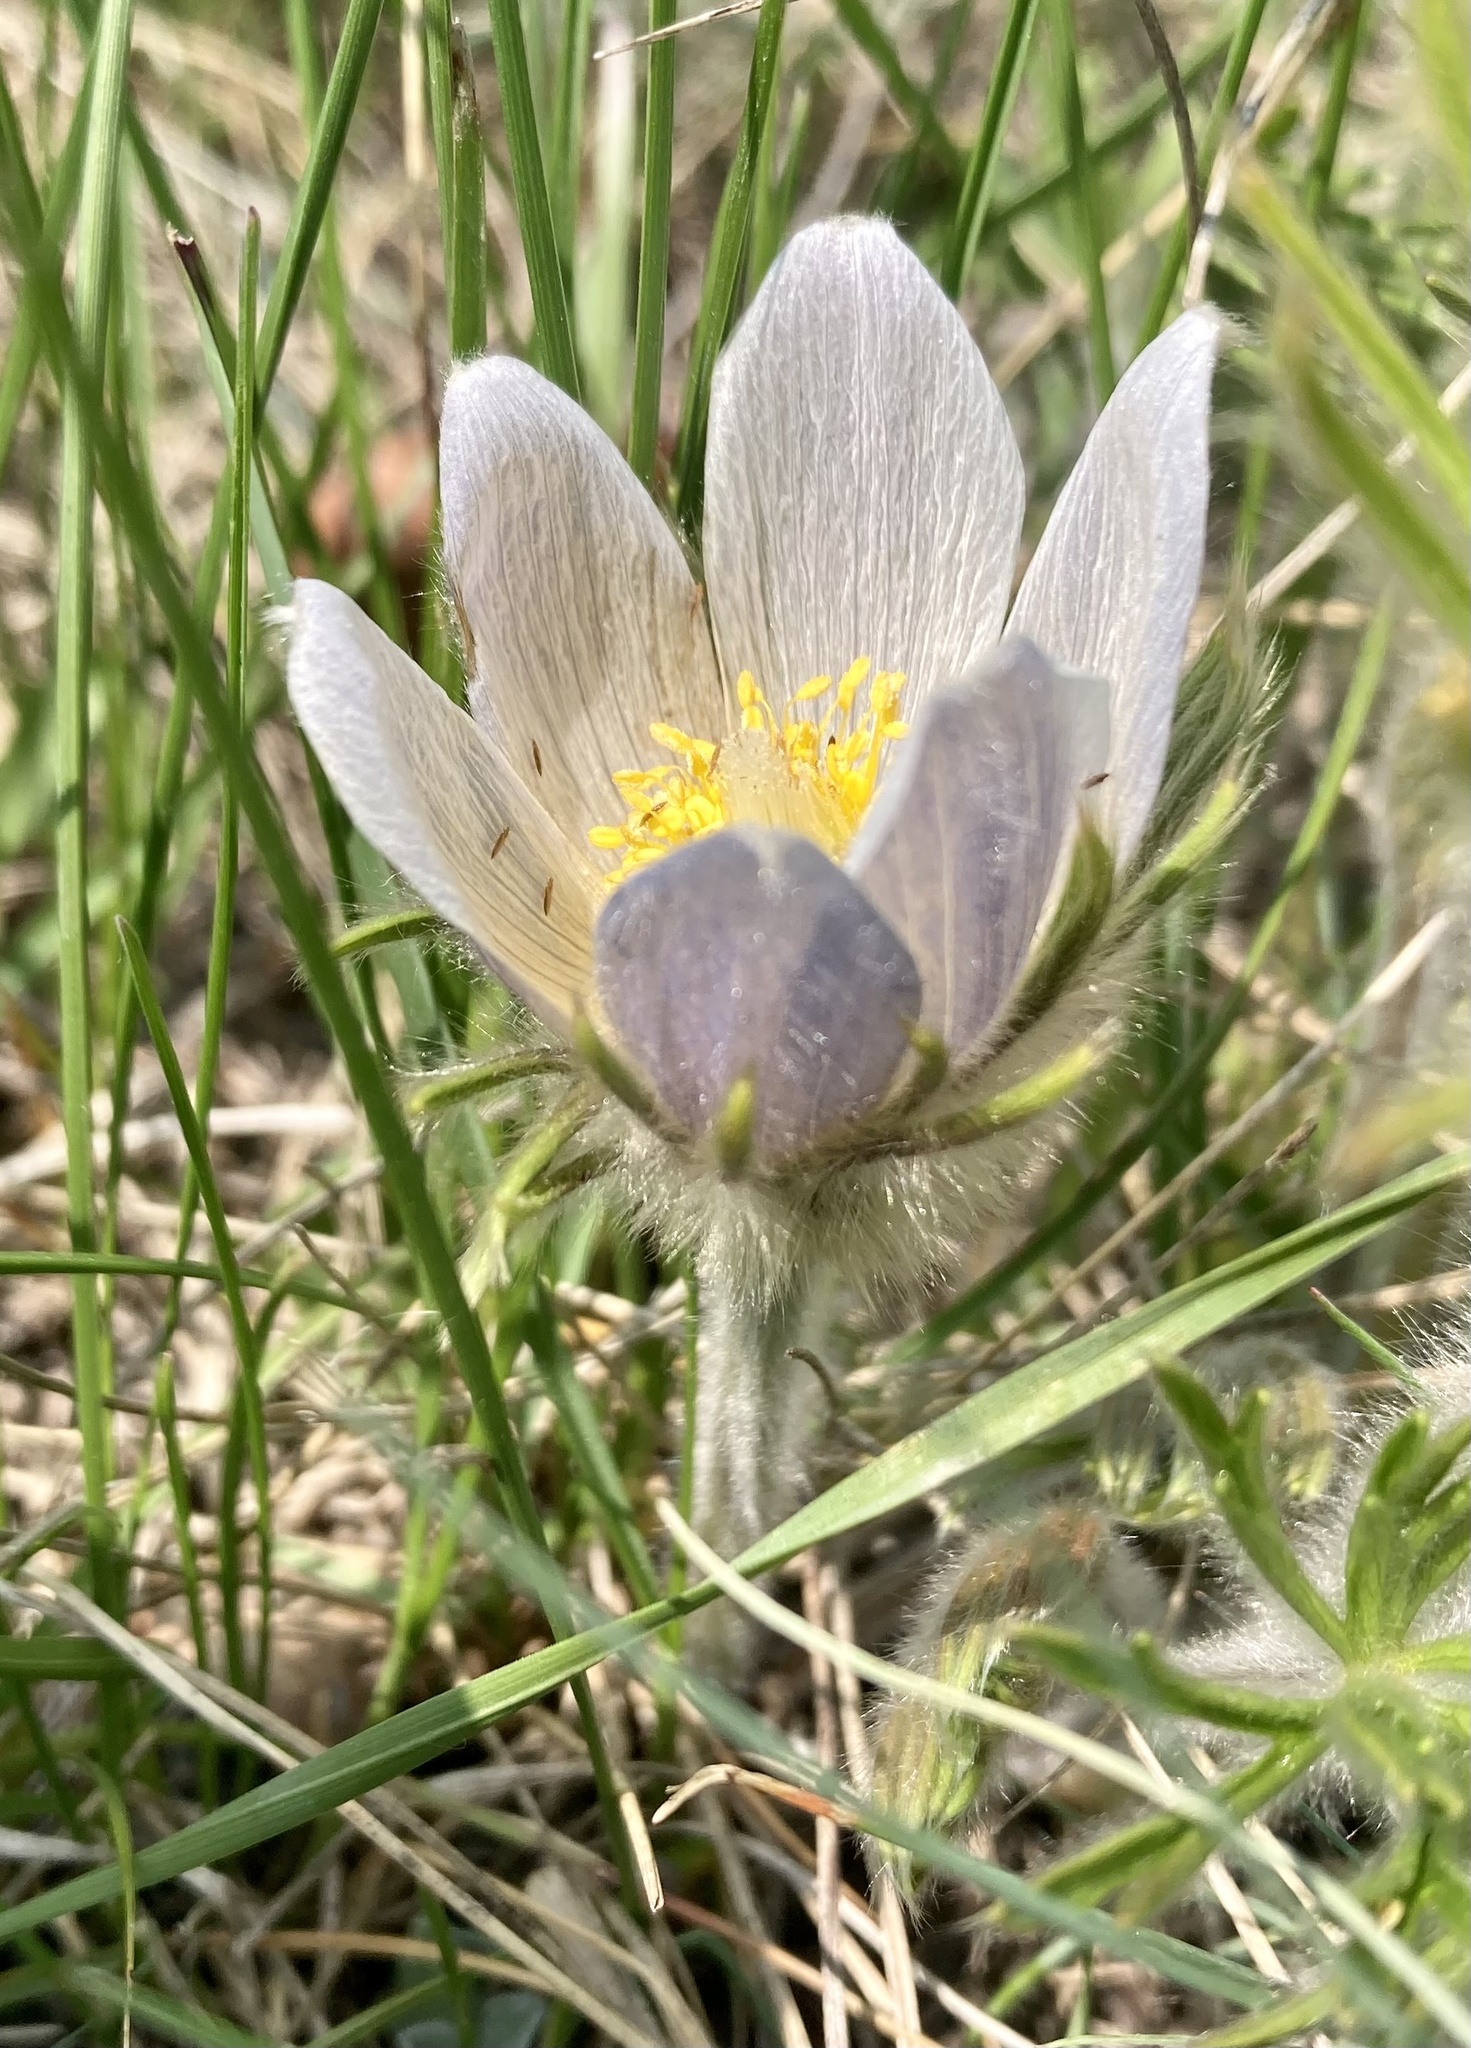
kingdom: Plantae
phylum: Tracheophyta
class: Magnoliopsida
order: Ranunculales
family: Ranunculaceae
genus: Pulsatilla
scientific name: Pulsatilla nuttalliana
